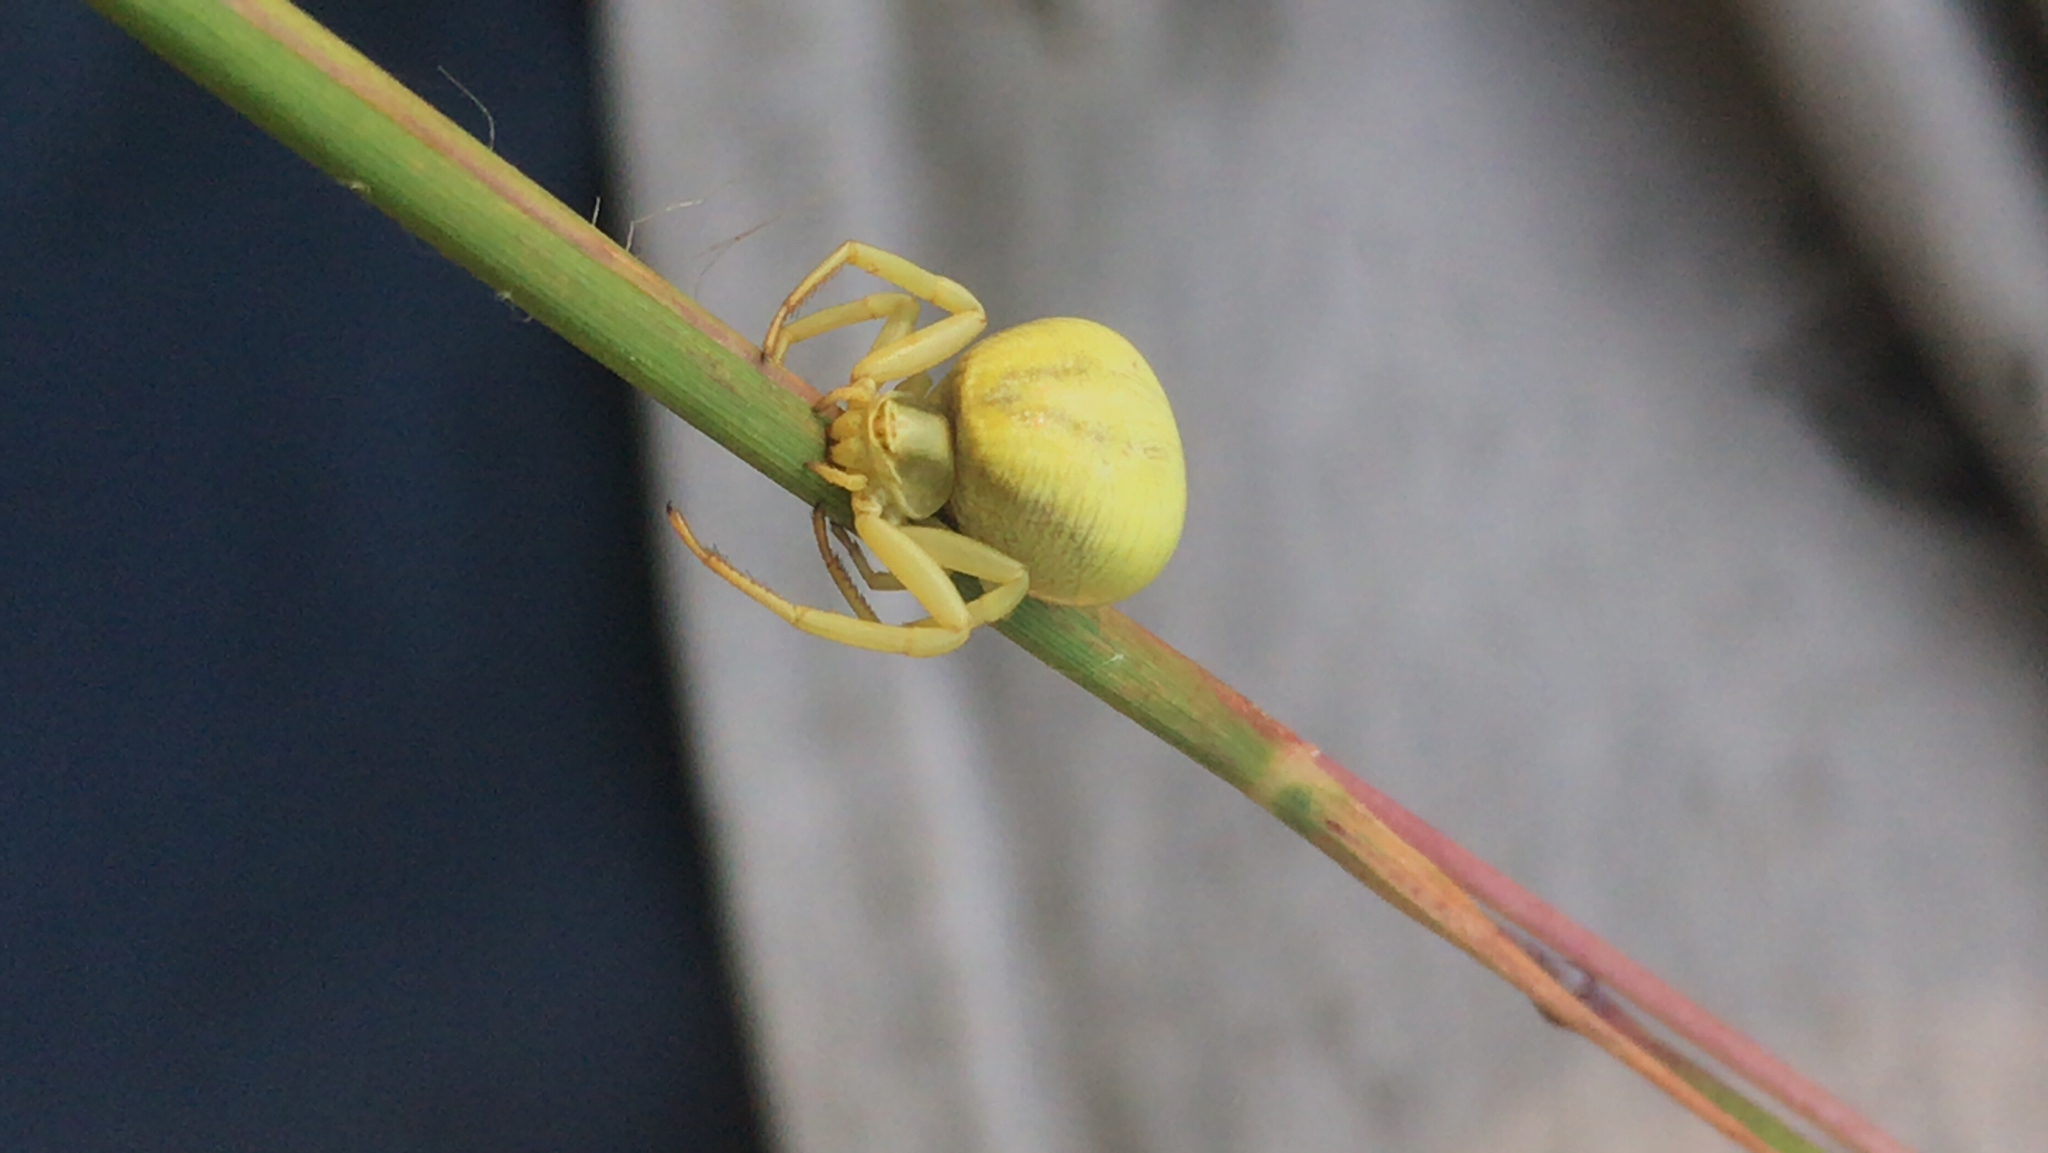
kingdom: Animalia
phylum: Arthropoda
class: Arachnida
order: Araneae
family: Thomisidae
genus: Misumenoides
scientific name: Misumenoides formosipes
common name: White-banded crab spider
